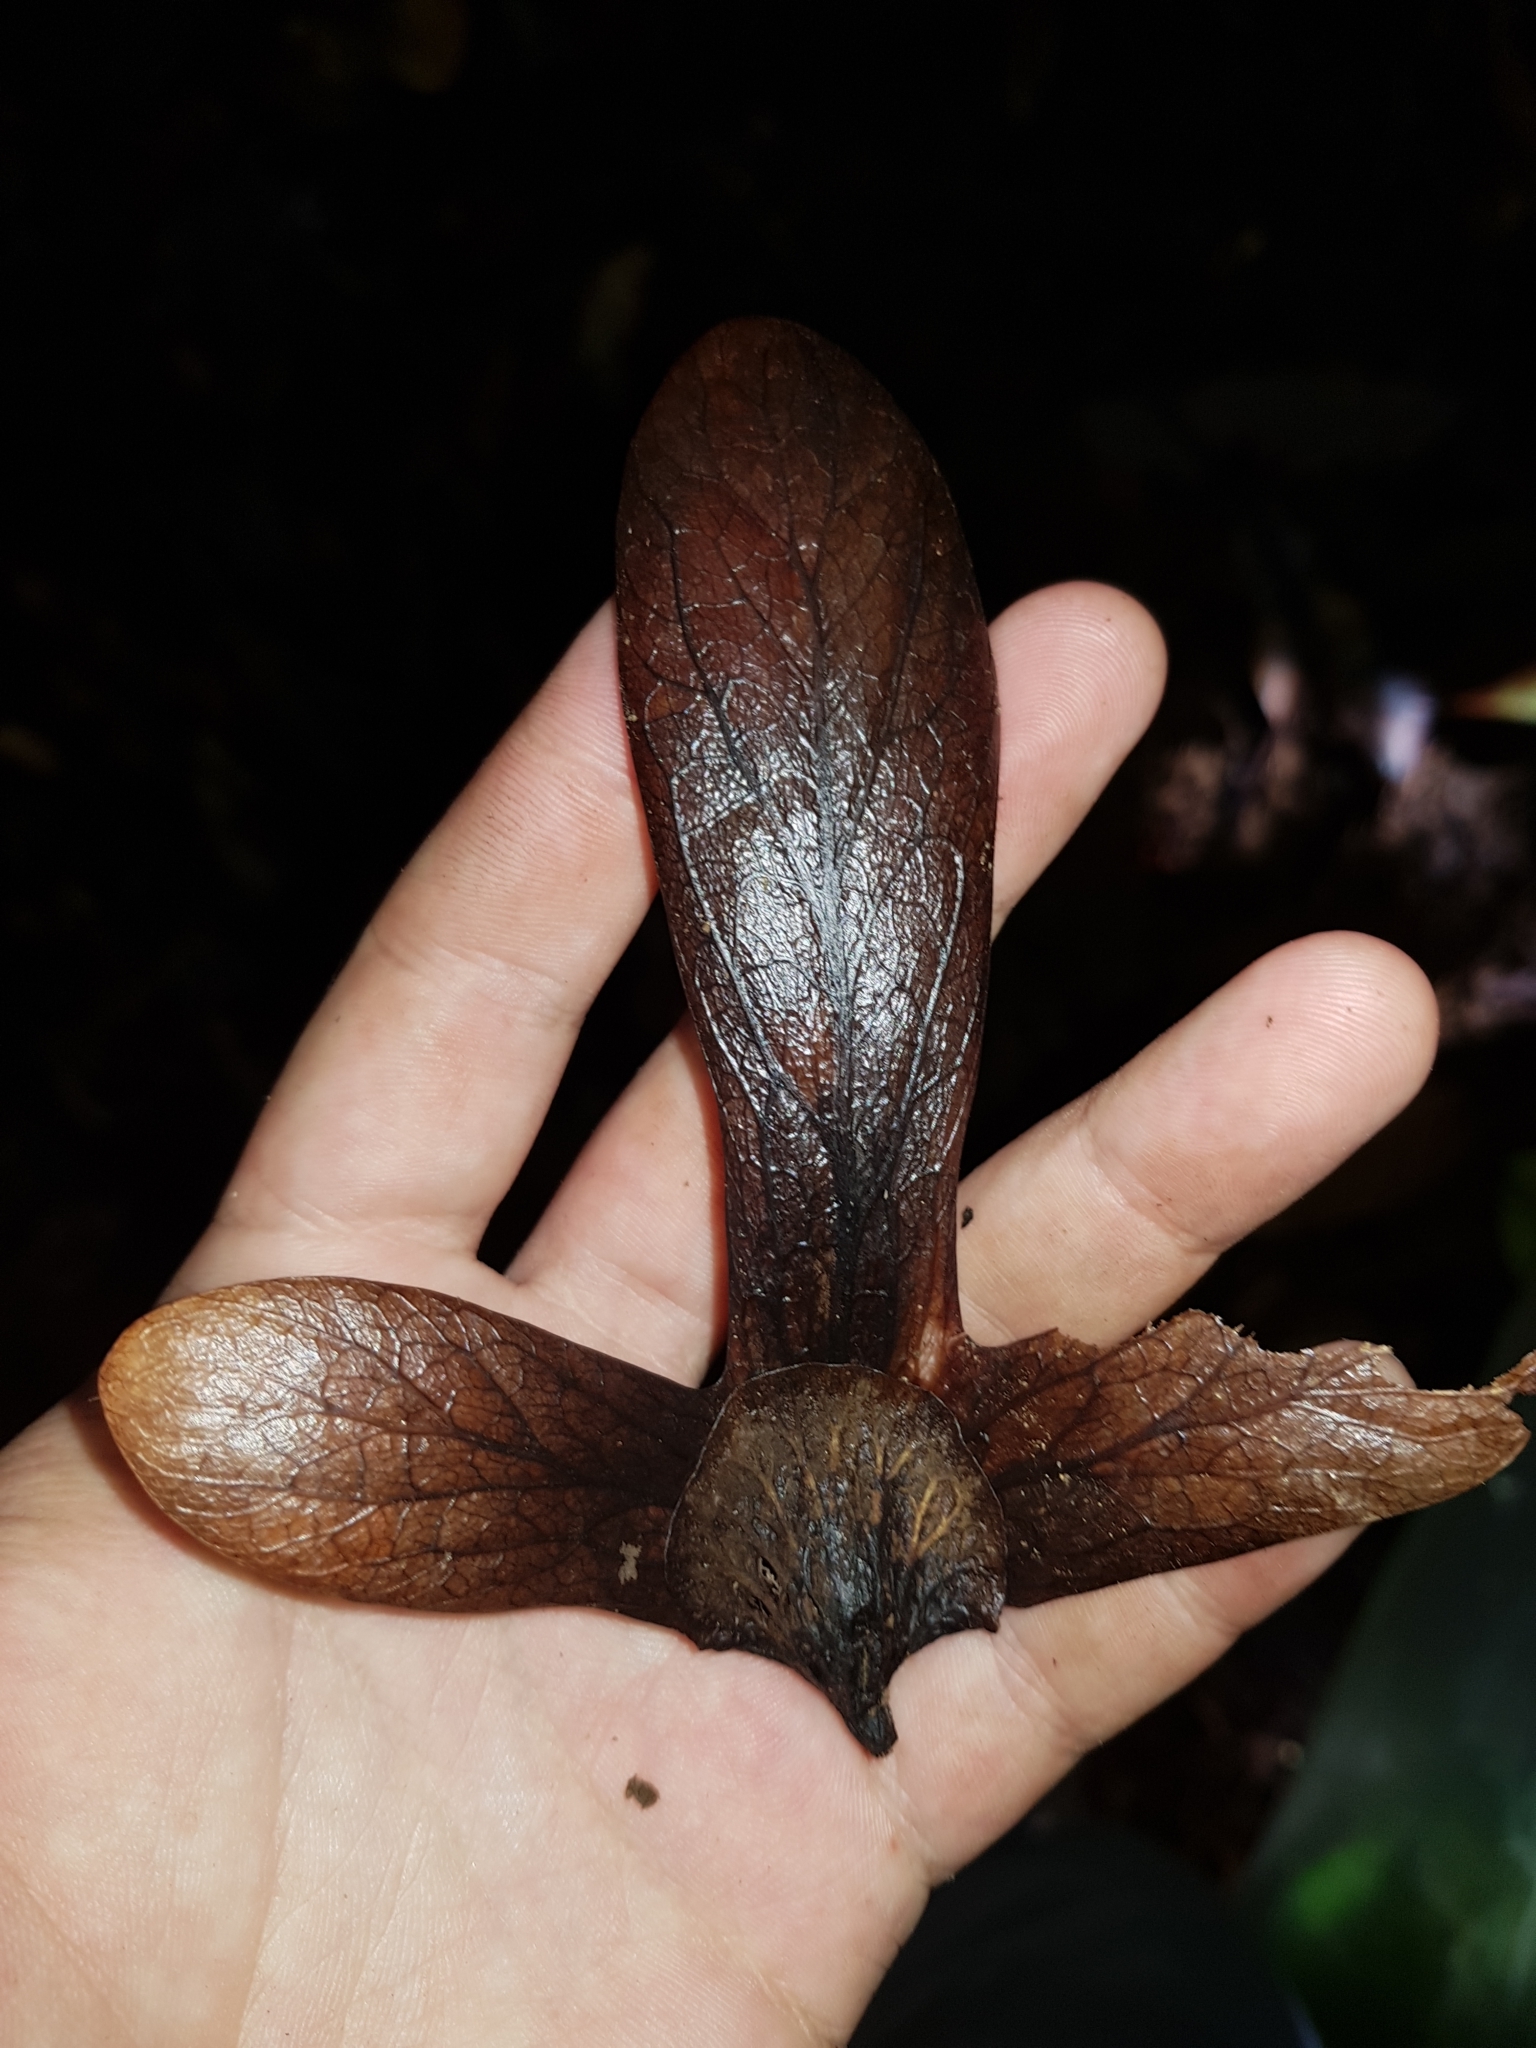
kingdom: Plantae
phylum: Tracheophyta
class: Magnoliopsida
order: Fagales
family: Juglandaceae
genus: Oreomunnea
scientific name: Oreomunnea pterocarpa
